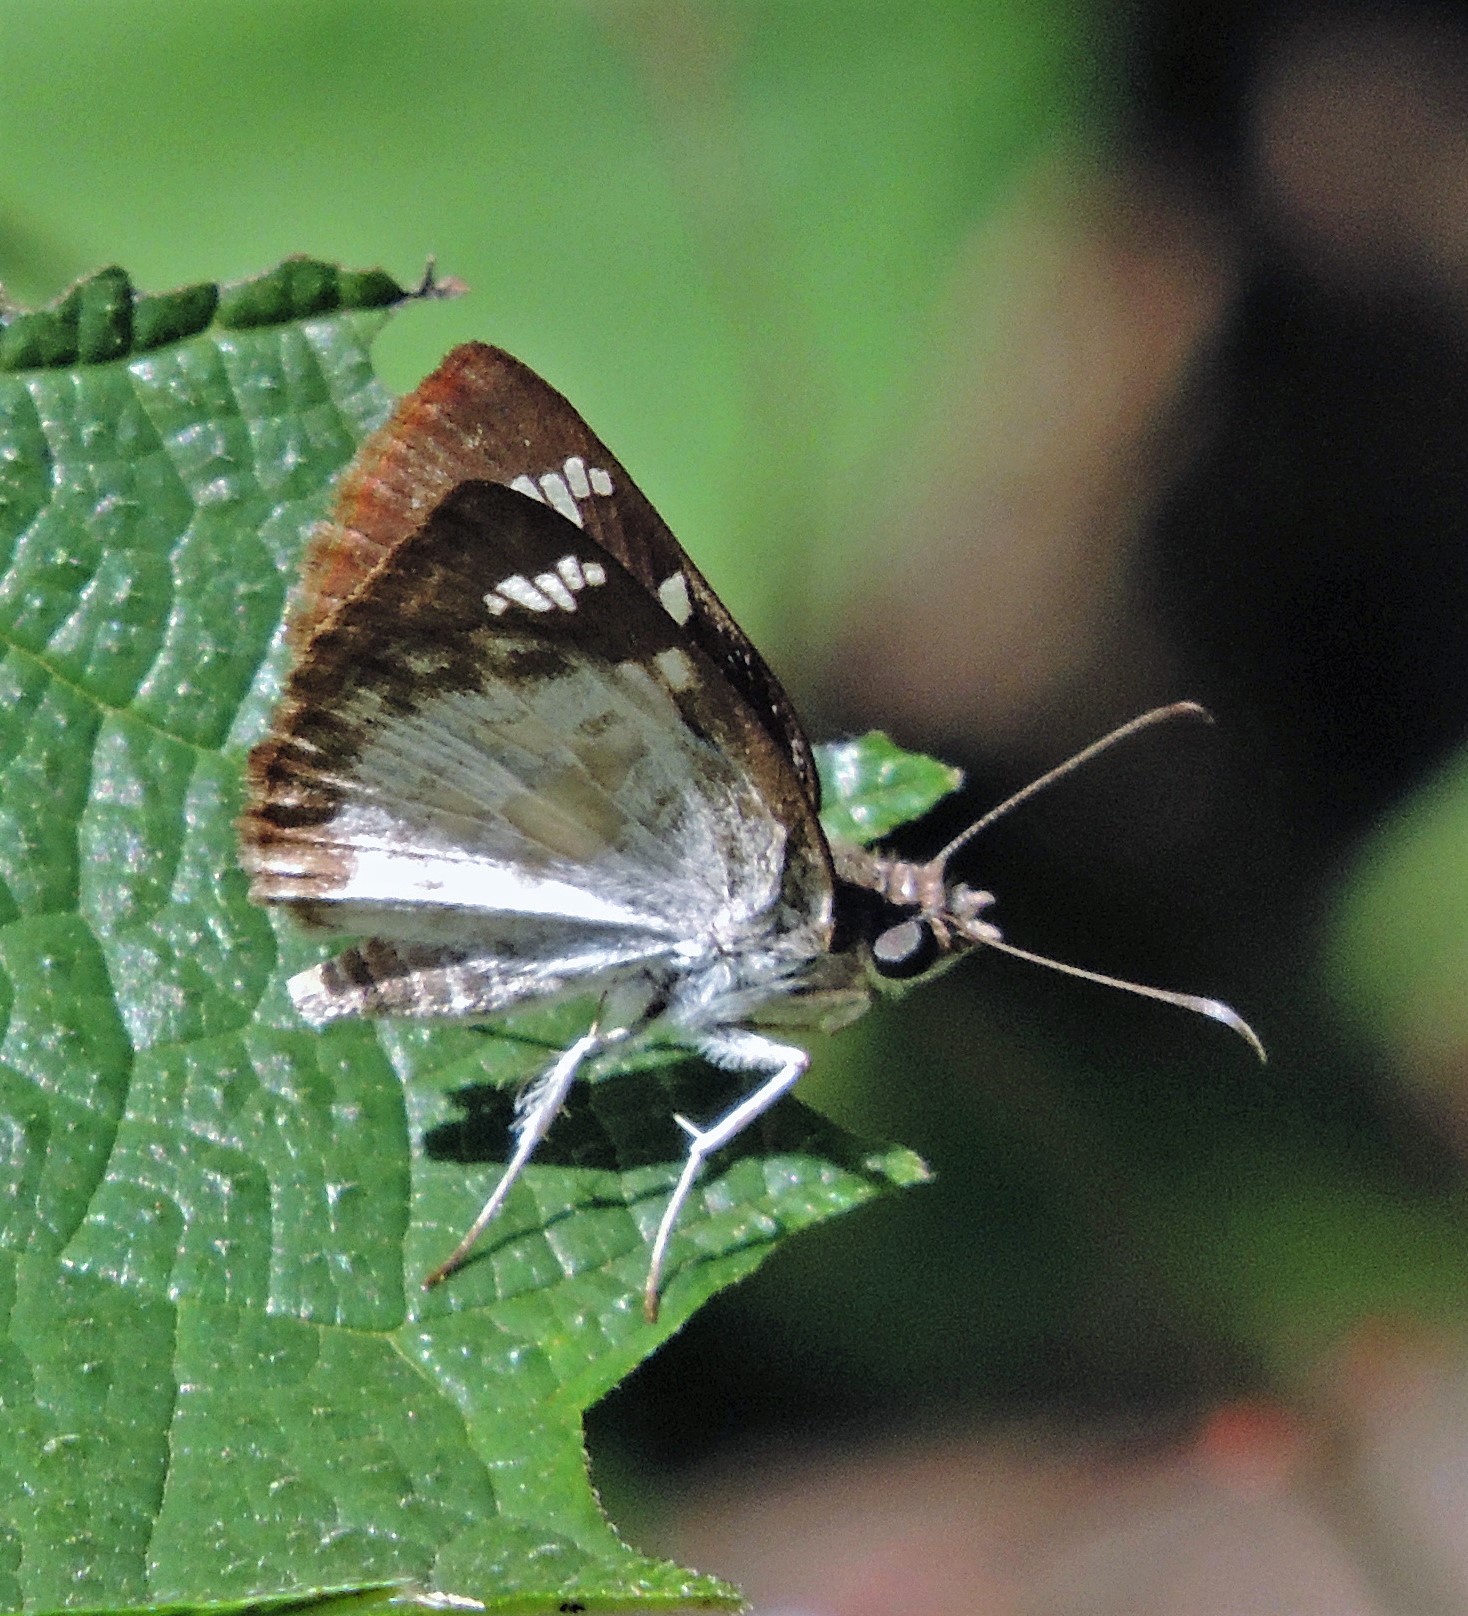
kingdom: Animalia
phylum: Arthropoda
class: Insecta
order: Lepidoptera
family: Hesperiidae
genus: Xenophanes
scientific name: Xenophanes tryxus
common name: Glassy-winged skipper
